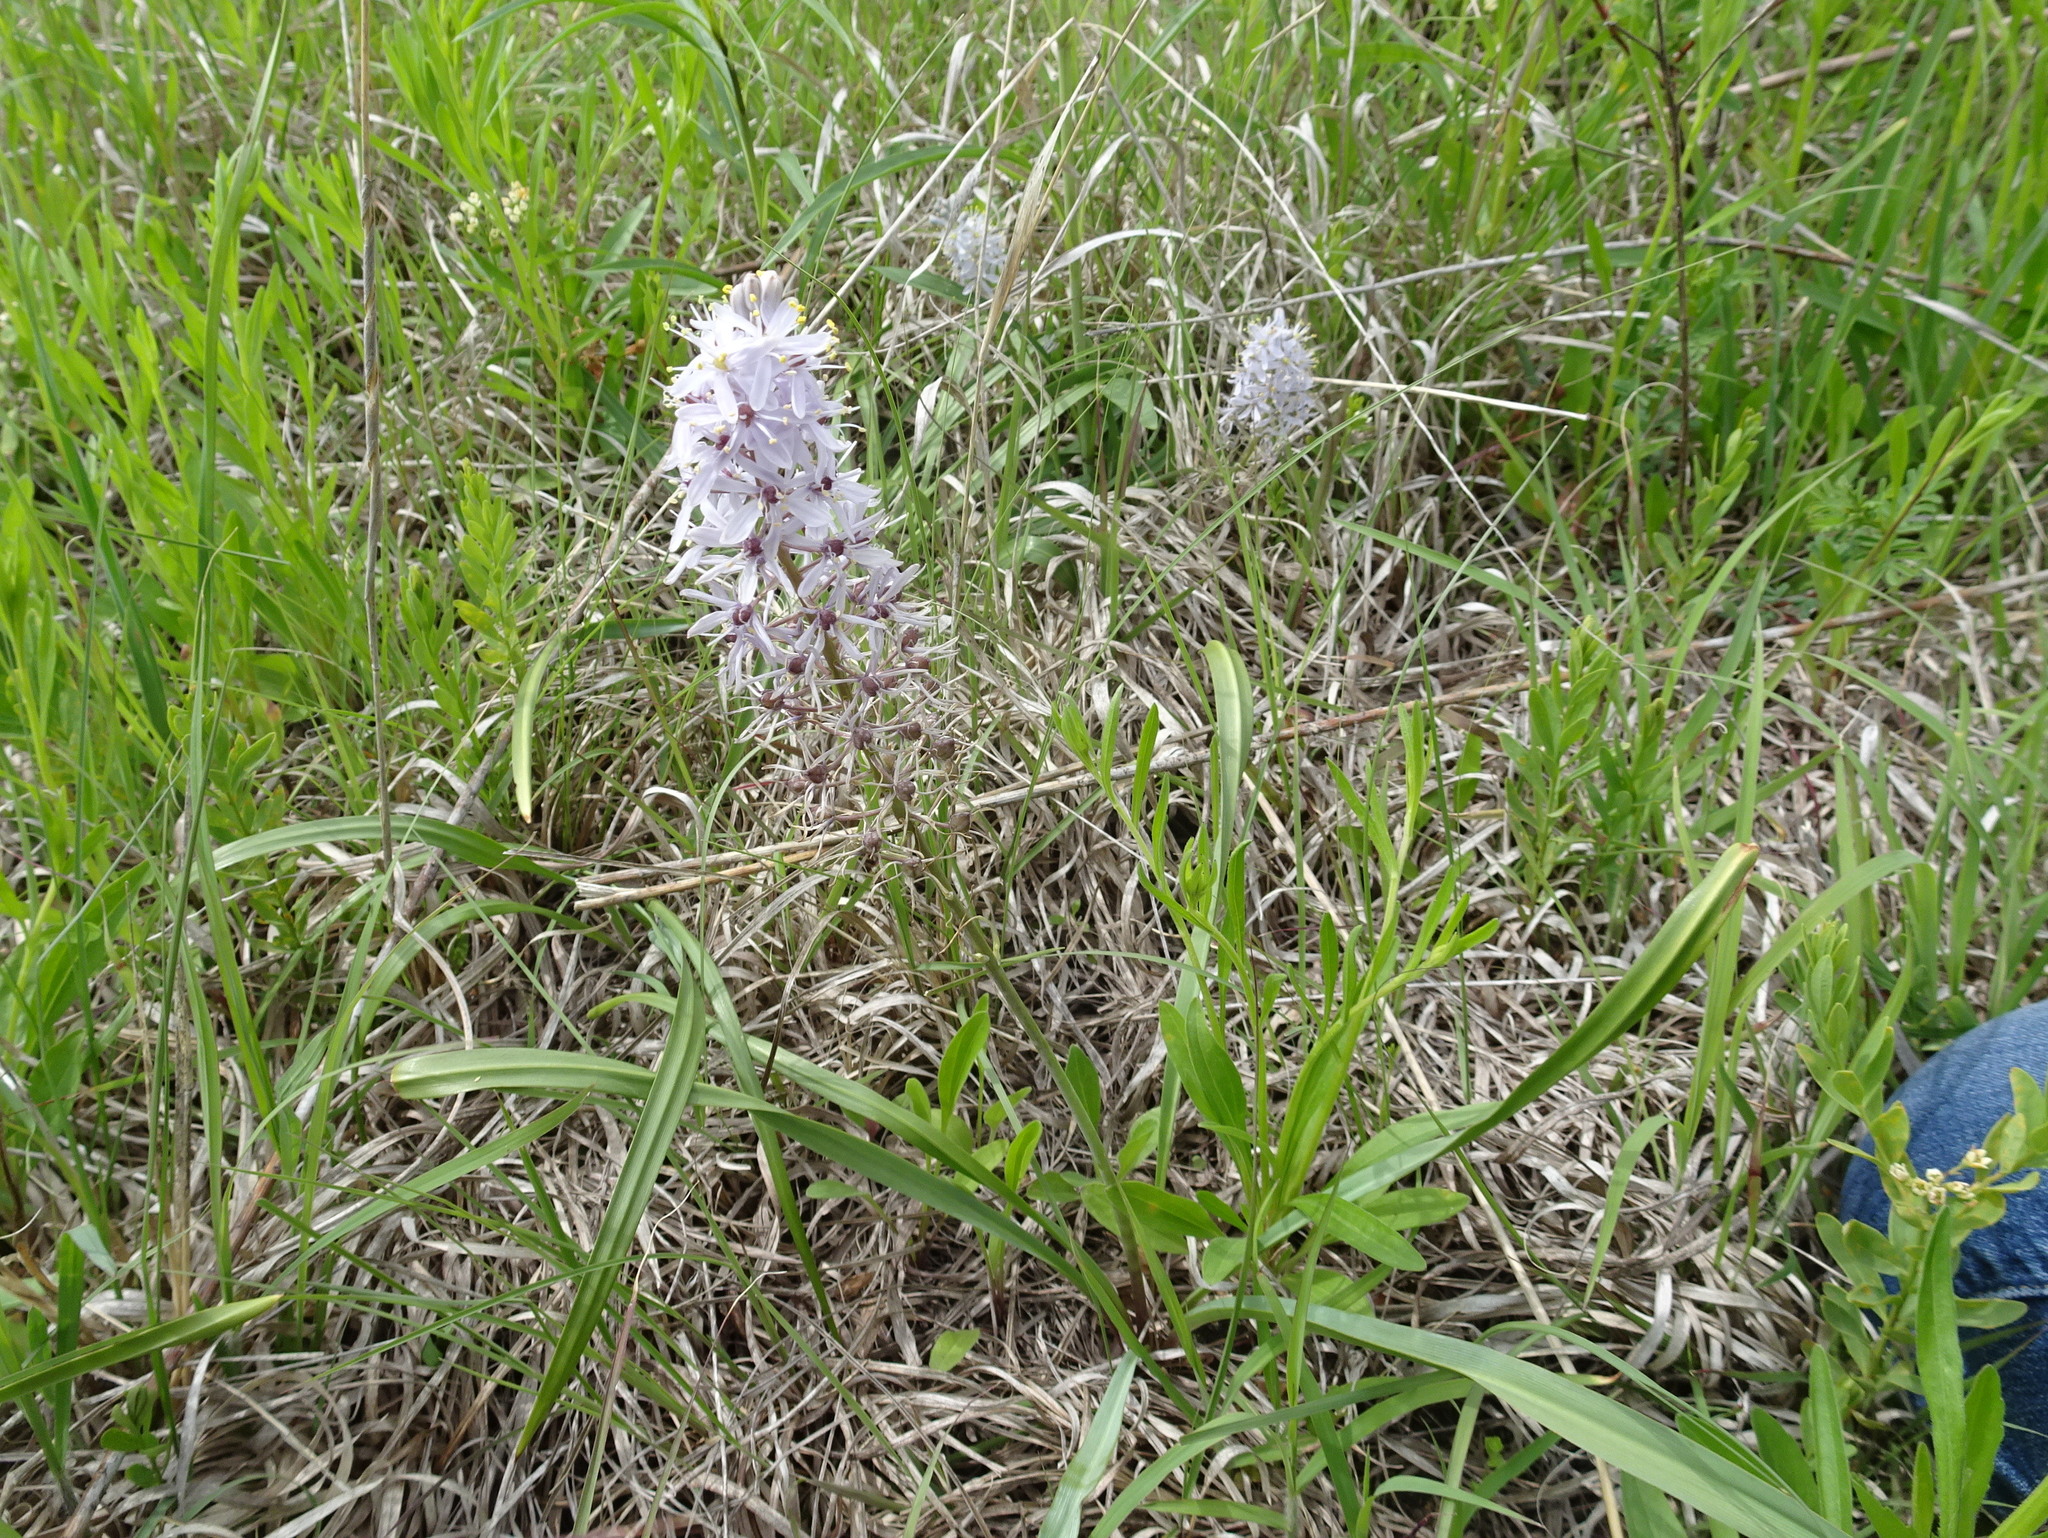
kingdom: Plantae
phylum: Tracheophyta
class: Liliopsida
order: Asparagales
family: Asparagaceae
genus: Camassia
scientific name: Camassia scilloides
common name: Wild hyacinth
